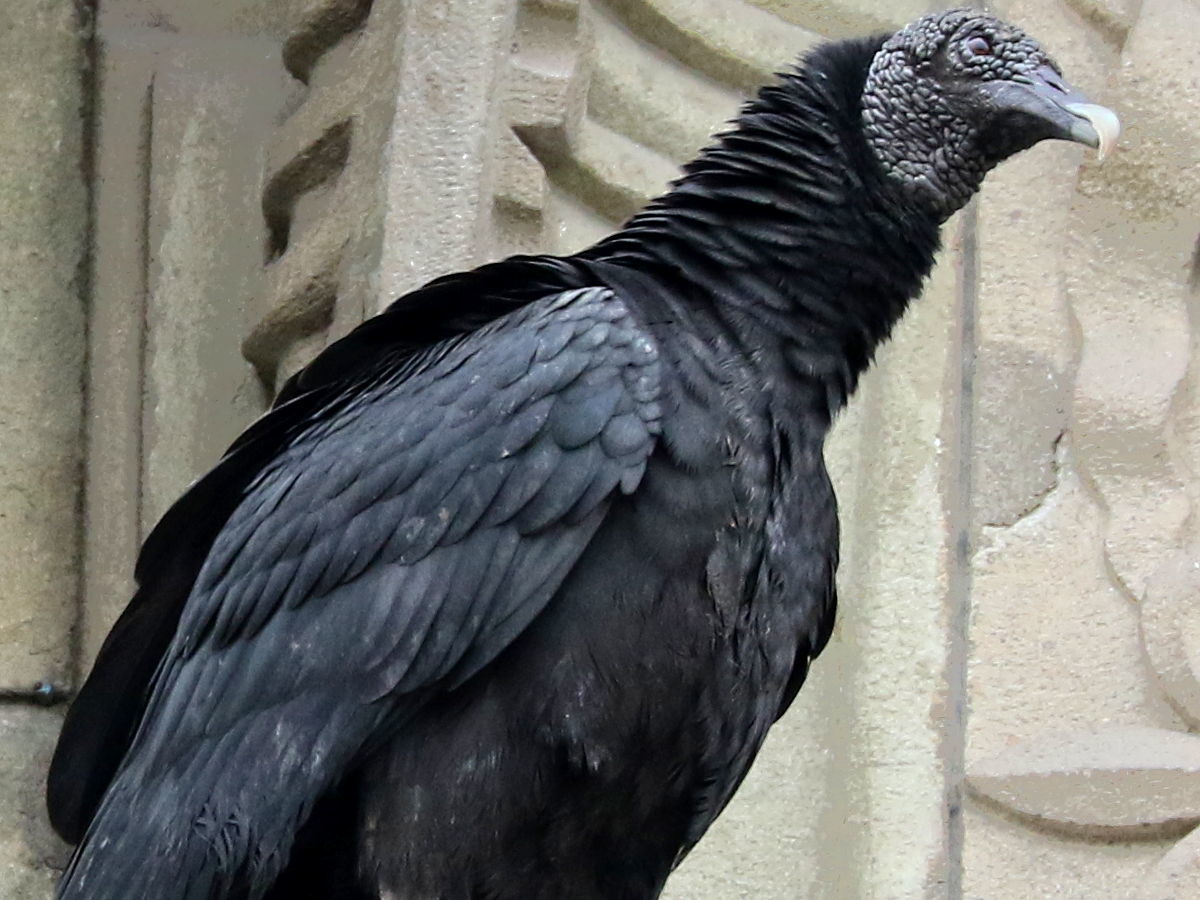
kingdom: Animalia
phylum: Chordata
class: Aves
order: Accipitriformes
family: Cathartidae
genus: Coragyps
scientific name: Coragyps atratus
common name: Black vulture
